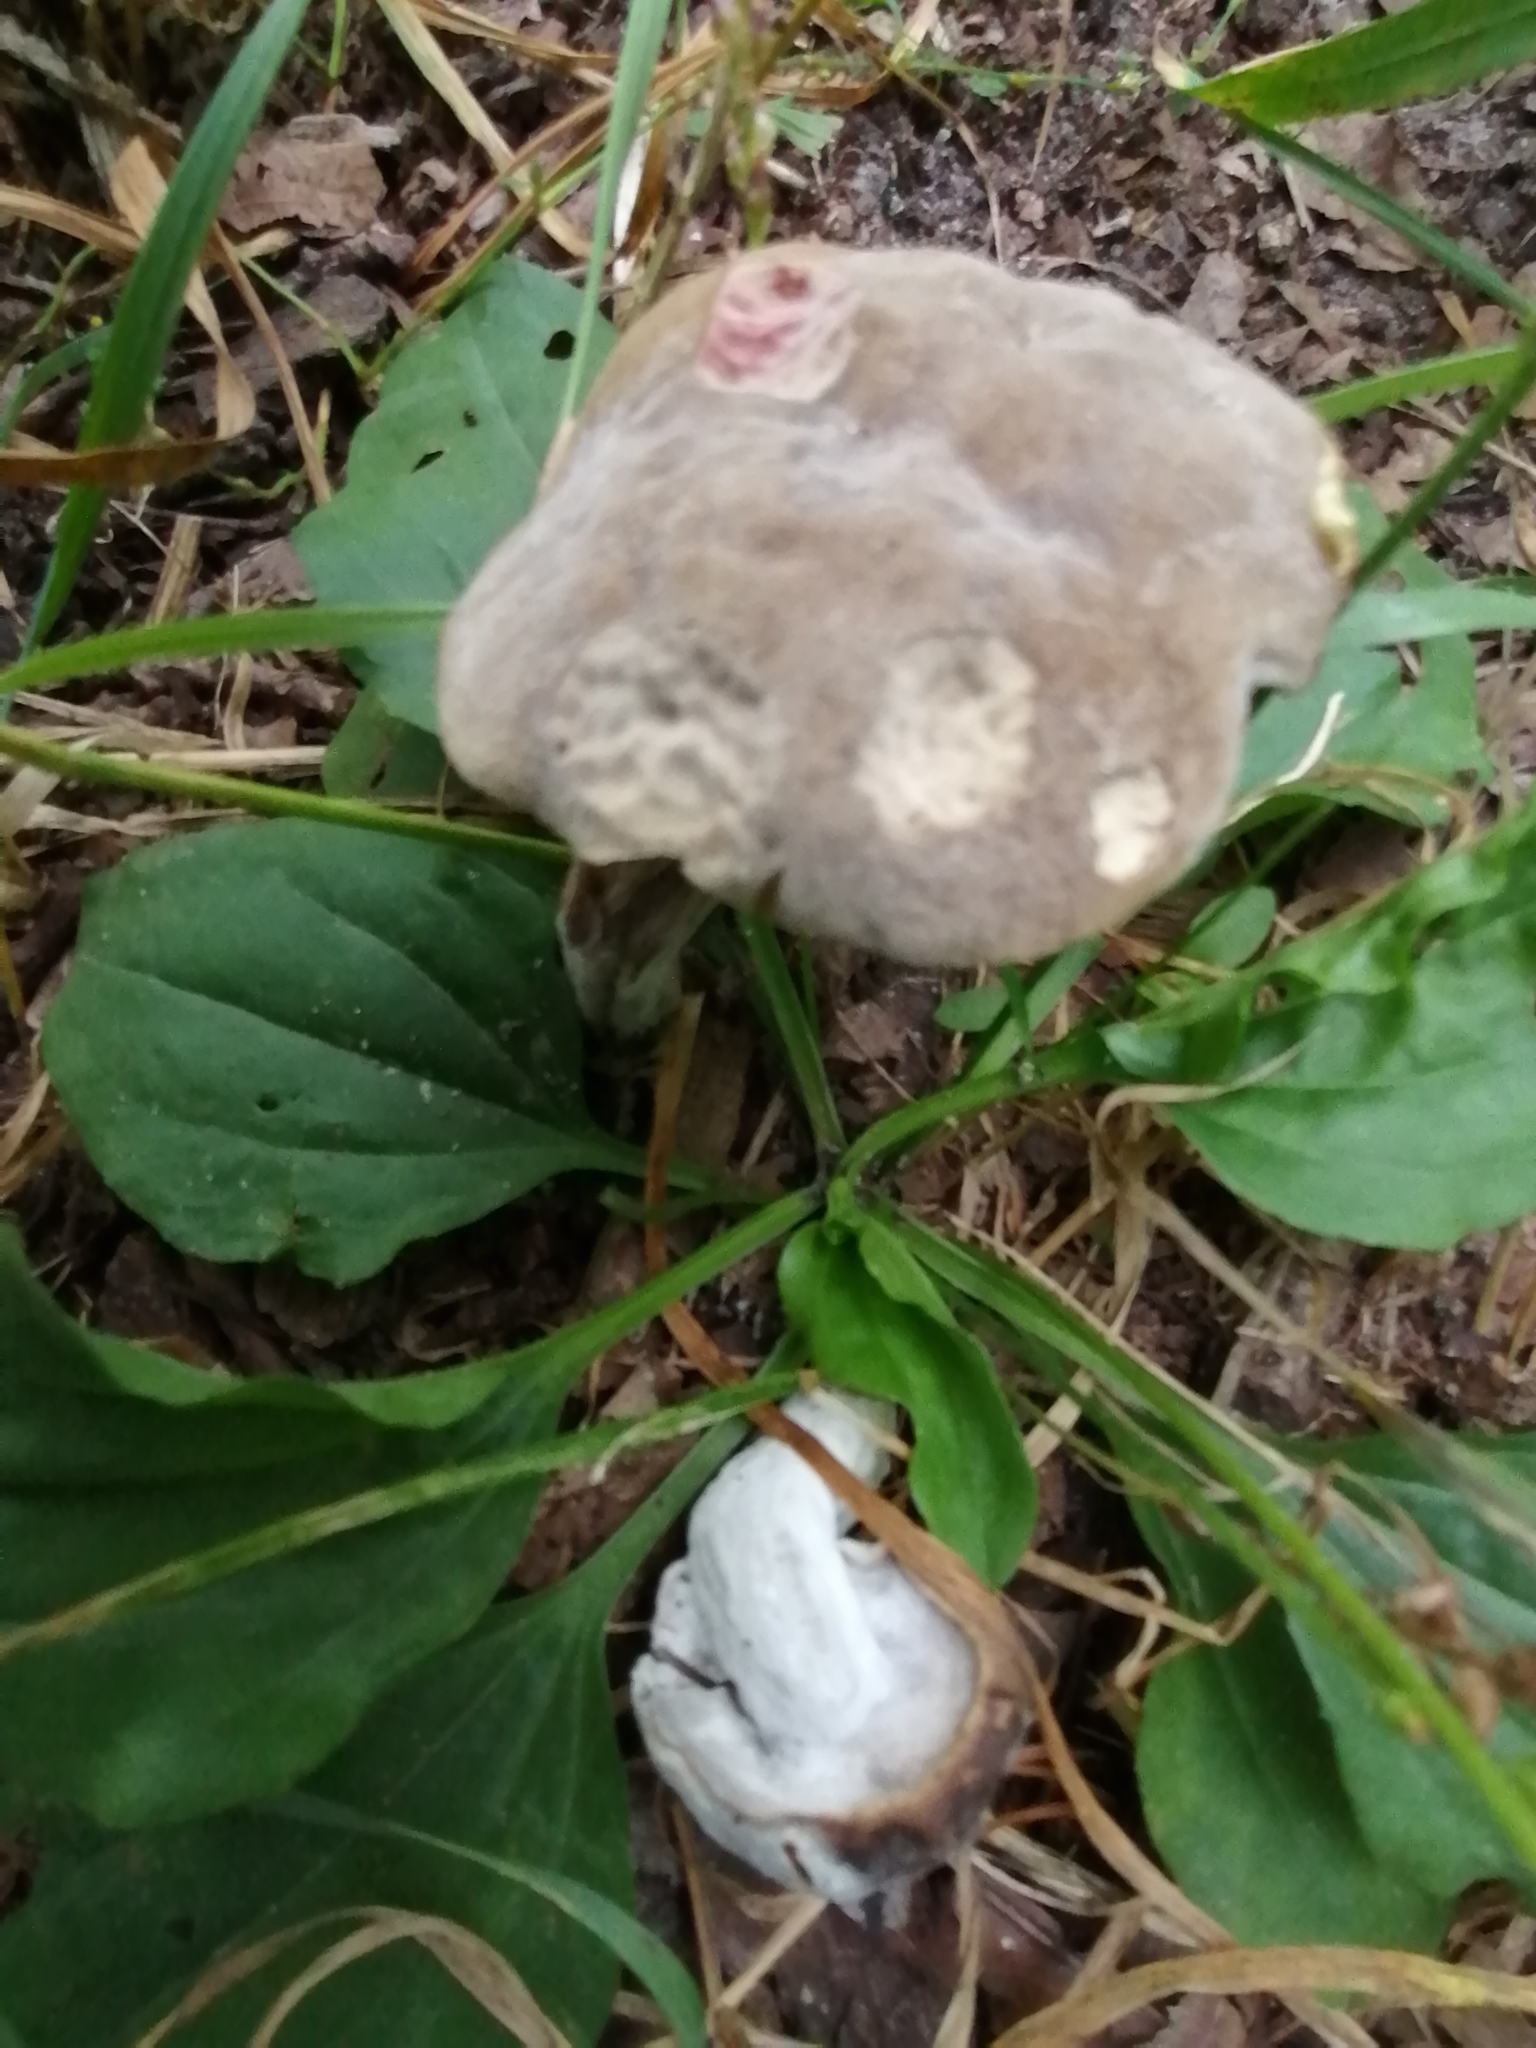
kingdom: Fungi
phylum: Basidiomycota
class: Agaricomycetes
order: Boletales
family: Boletaceae
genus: Xerocomus
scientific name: Xerocomus subtomentosus
